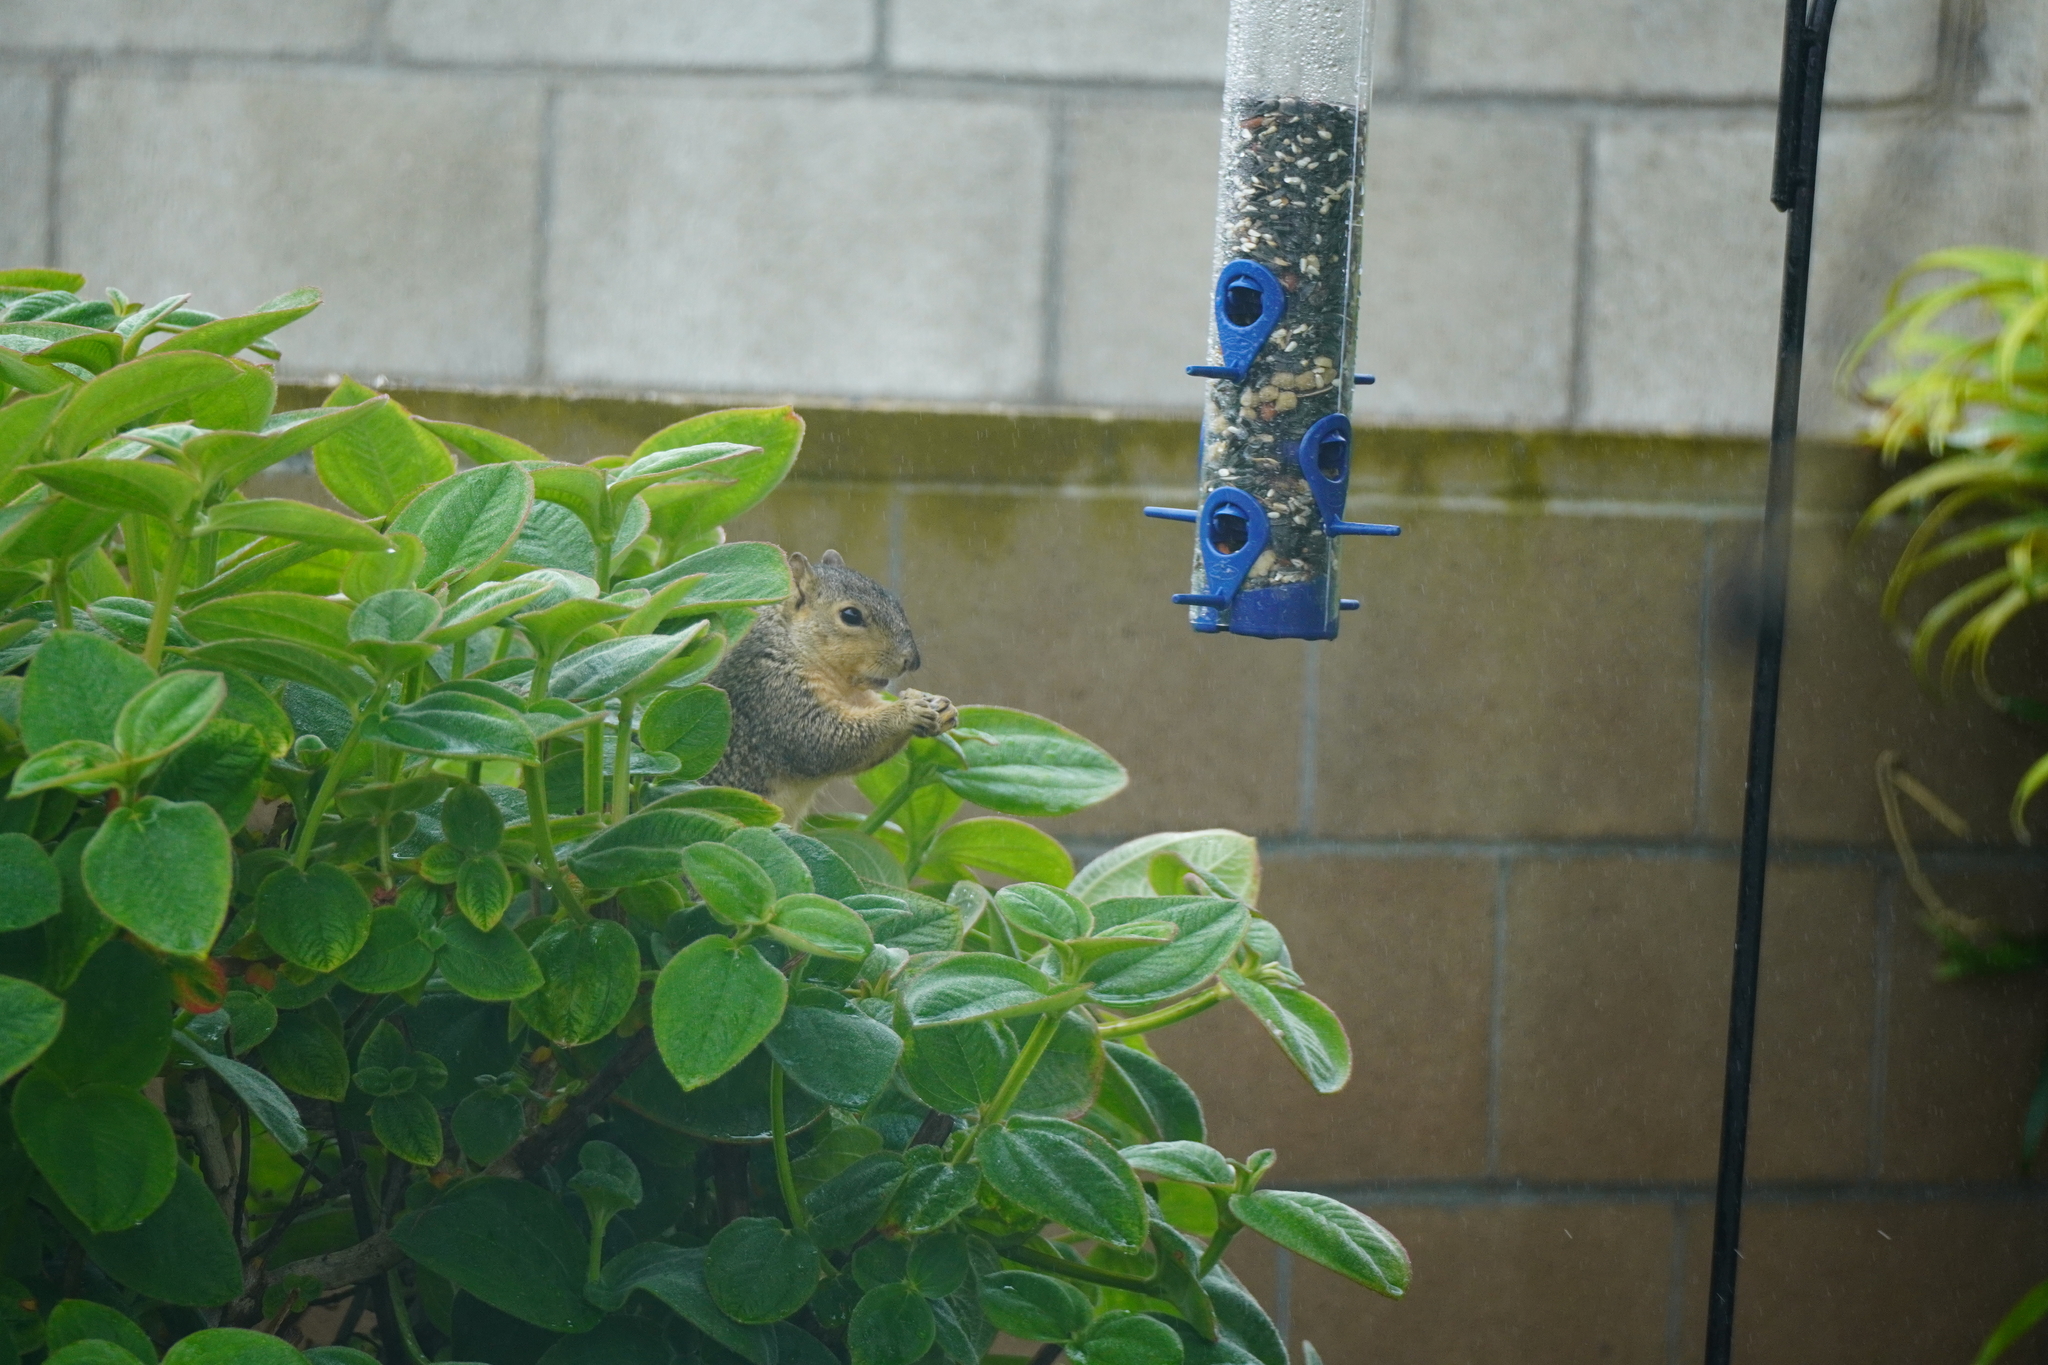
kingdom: Animalia
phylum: Chordata
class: Mammalia
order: Rodentia
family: Sciuridae
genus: Sciurus
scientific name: Sciurus niger
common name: Fox squirrel
